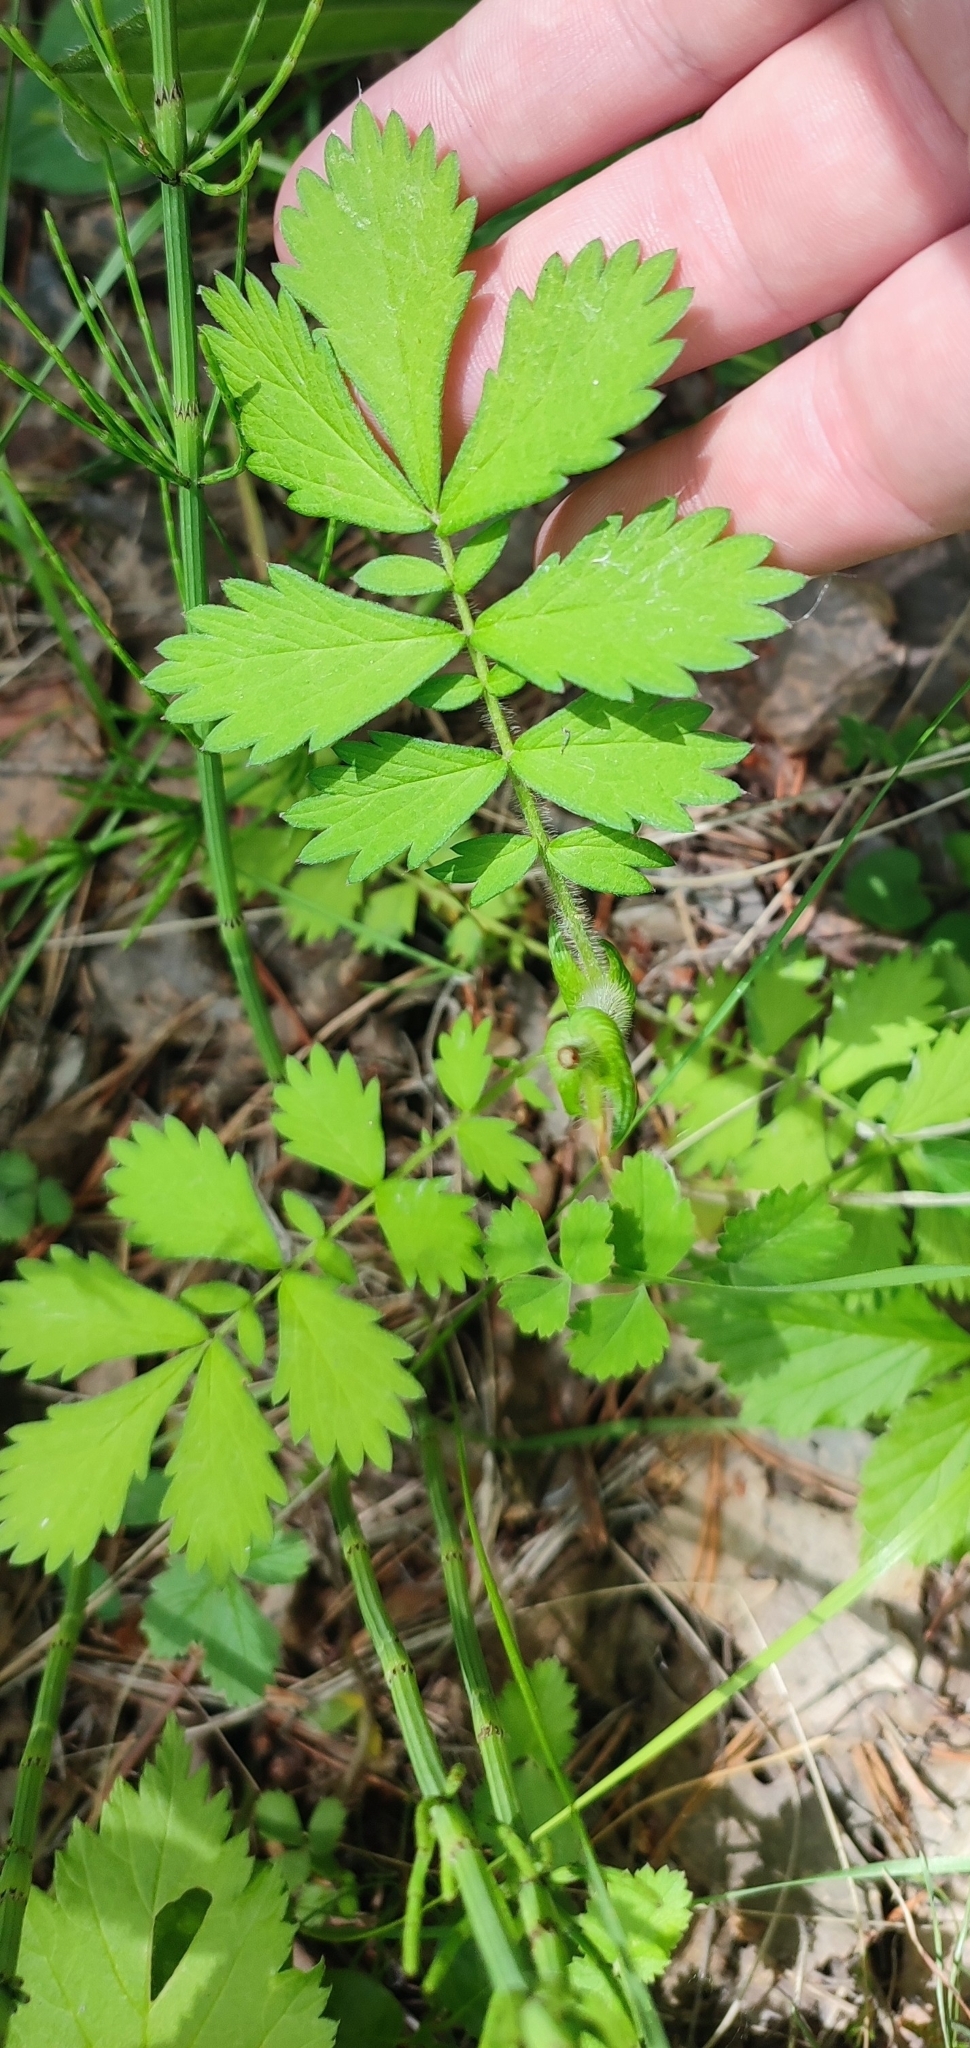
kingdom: Plantae
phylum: Tracheophyta
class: Magnoliopsida
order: Rosales
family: Rosaceae
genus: Agrimonia
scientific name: Agrimonia pilosa
